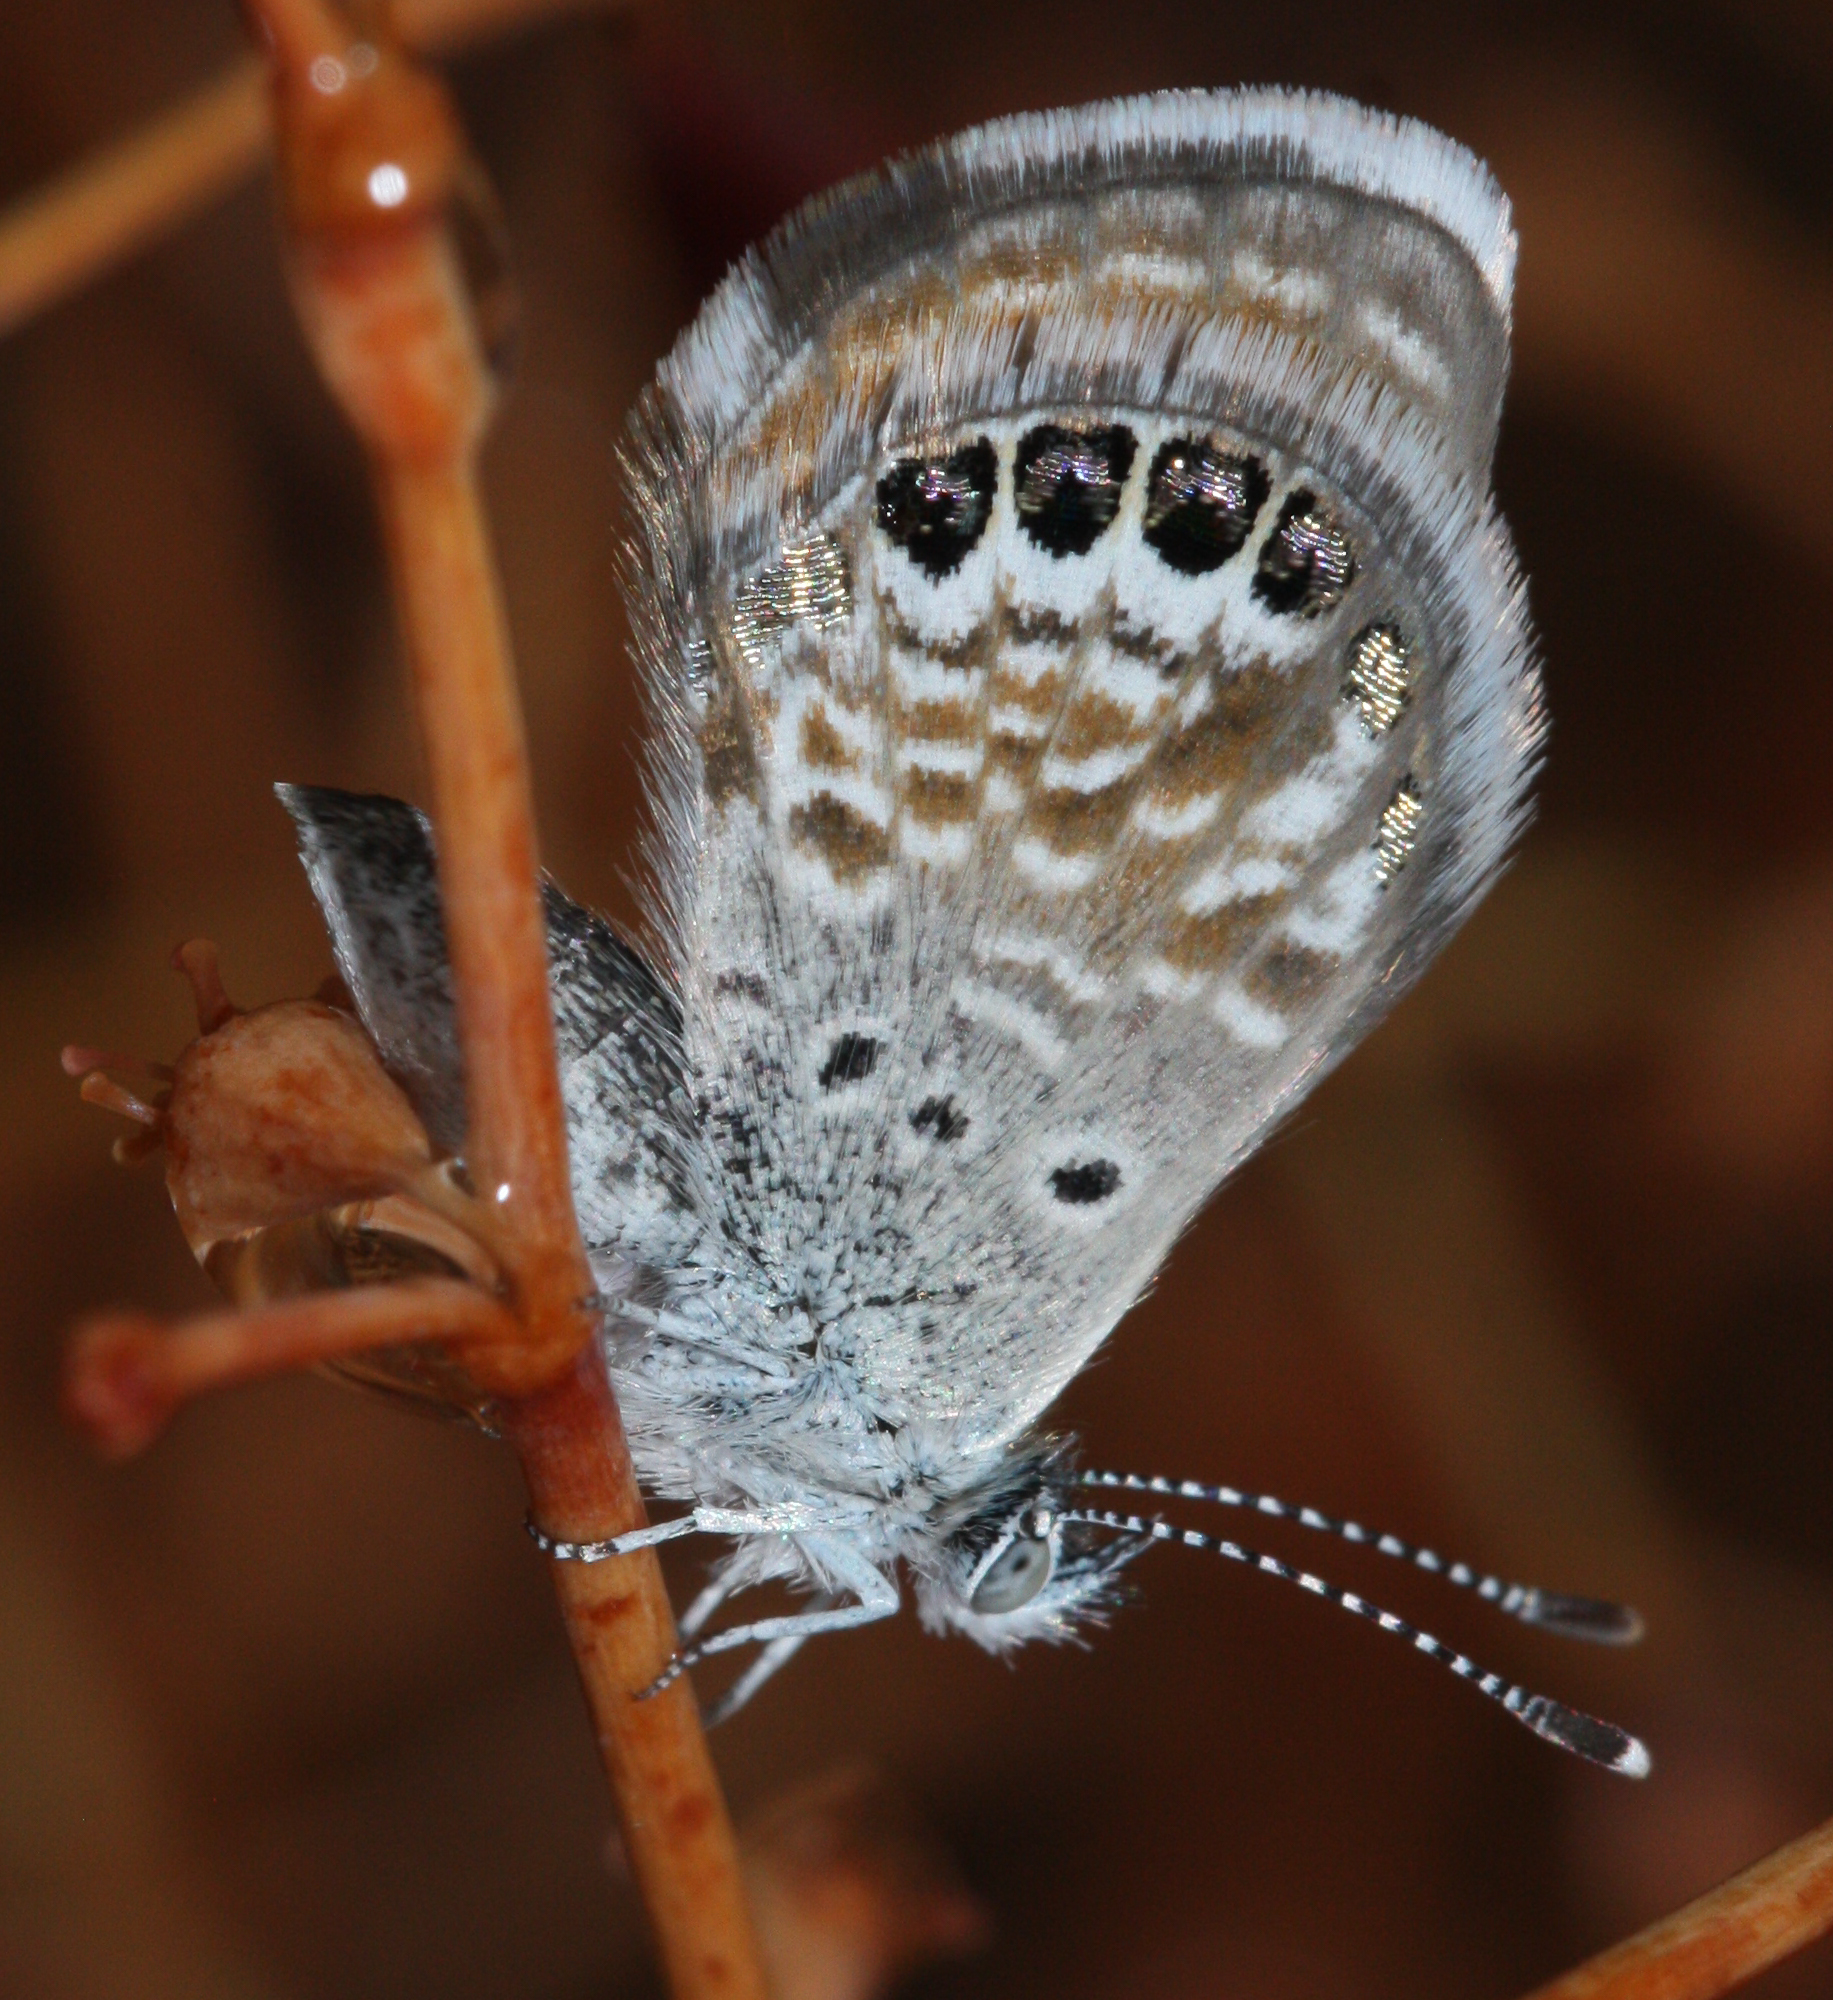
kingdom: Animalia
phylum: Arthropoda
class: Insecta
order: Lepidoptera
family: Lycaenidae
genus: Brephidium
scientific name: Brephidium exilis
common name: Pygmy blue
